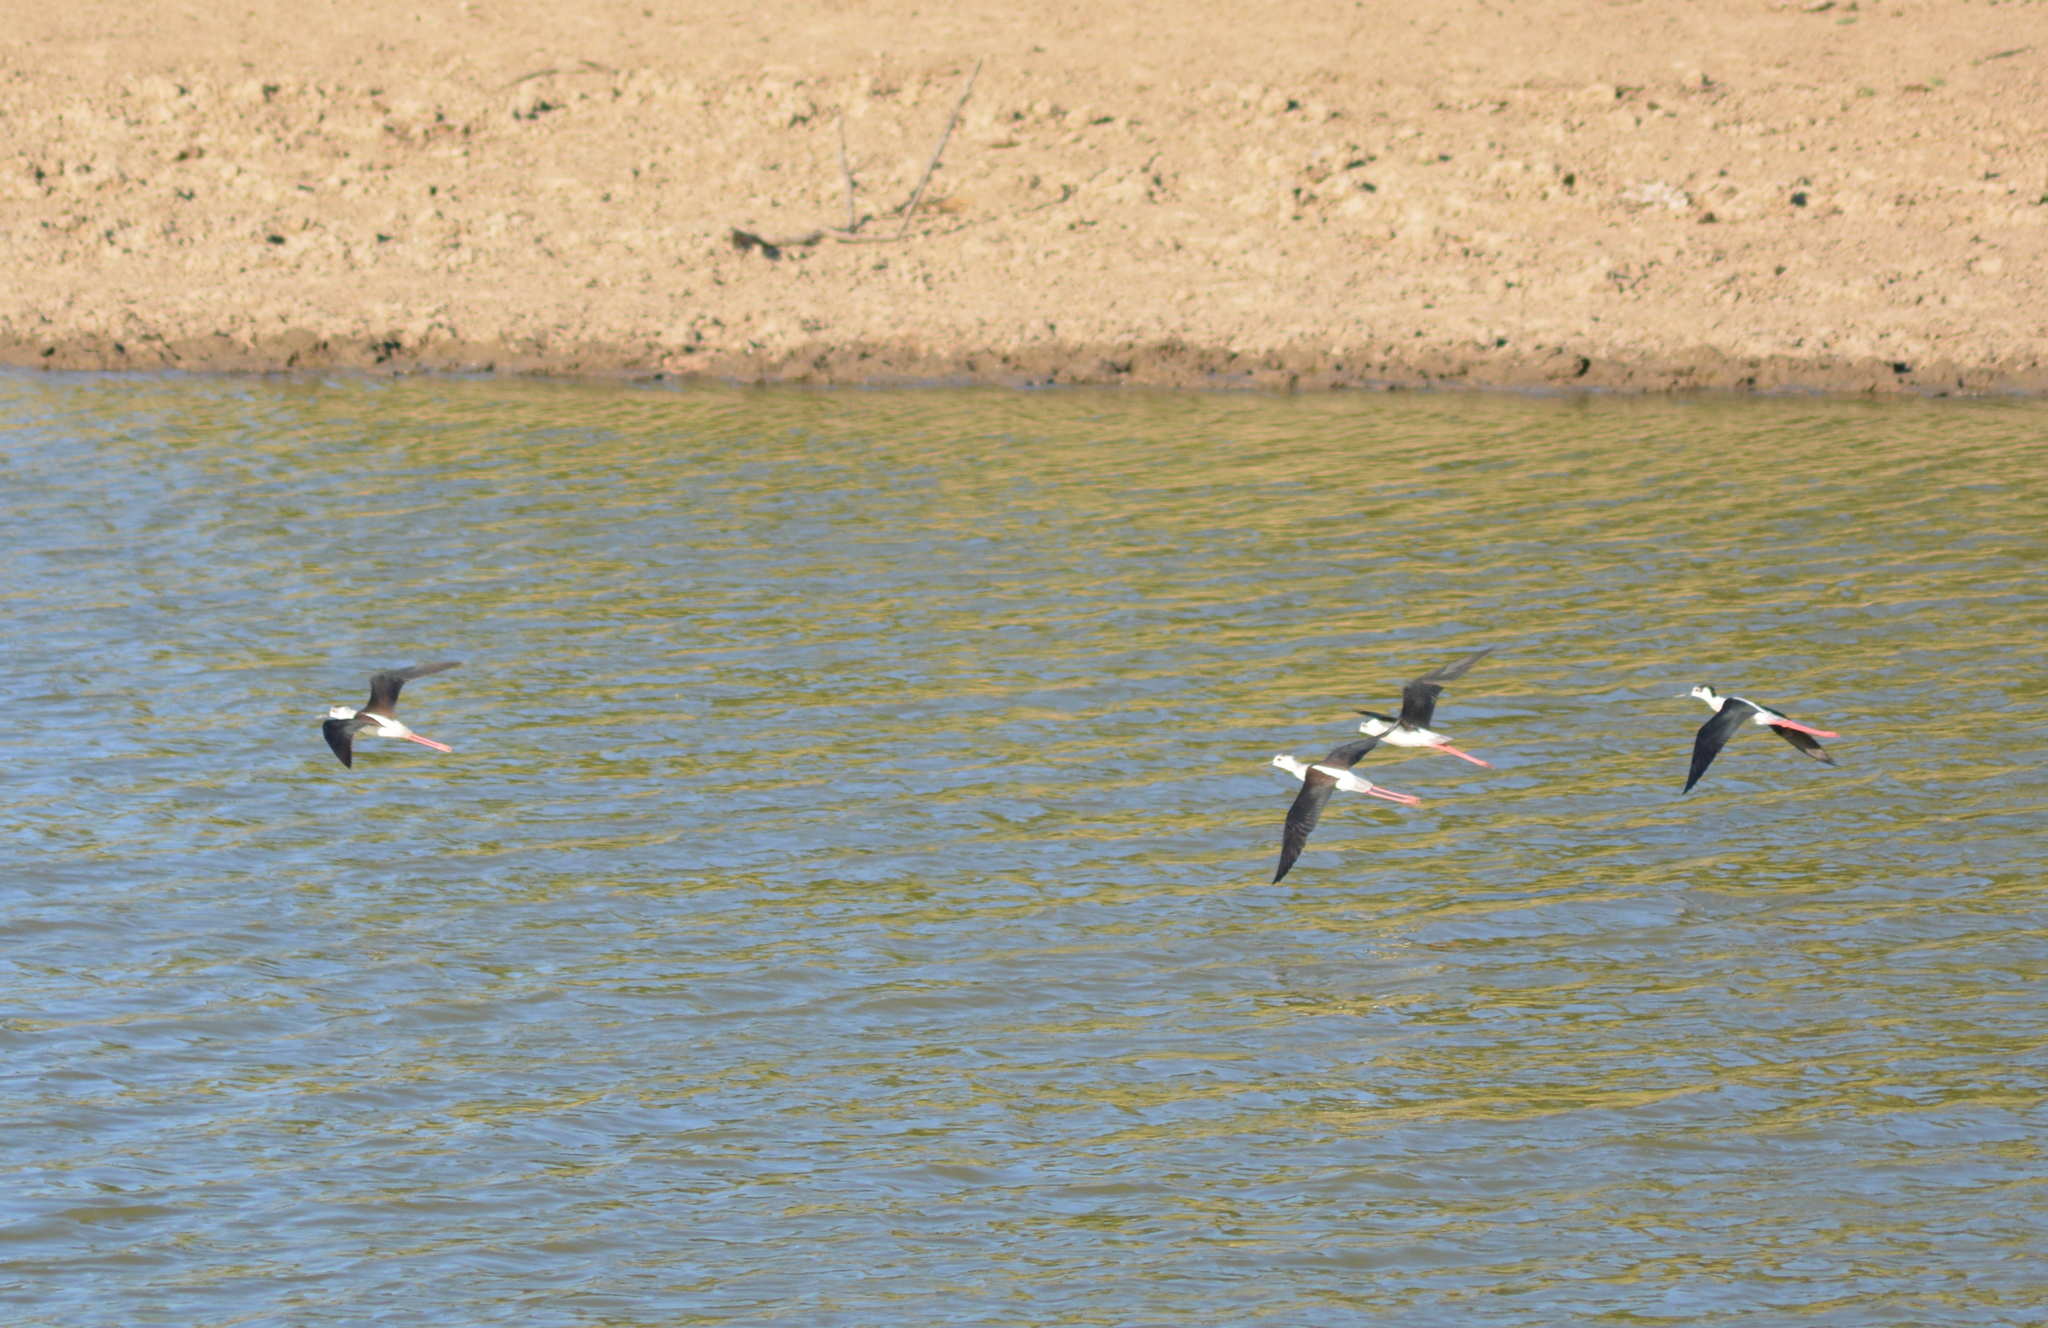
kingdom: Animalia
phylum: Chordata
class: Aves
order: Charadriiformes
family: Recurvirostridae
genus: Himantopus
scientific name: Himantopus himantopus
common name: Black-winged stilt
